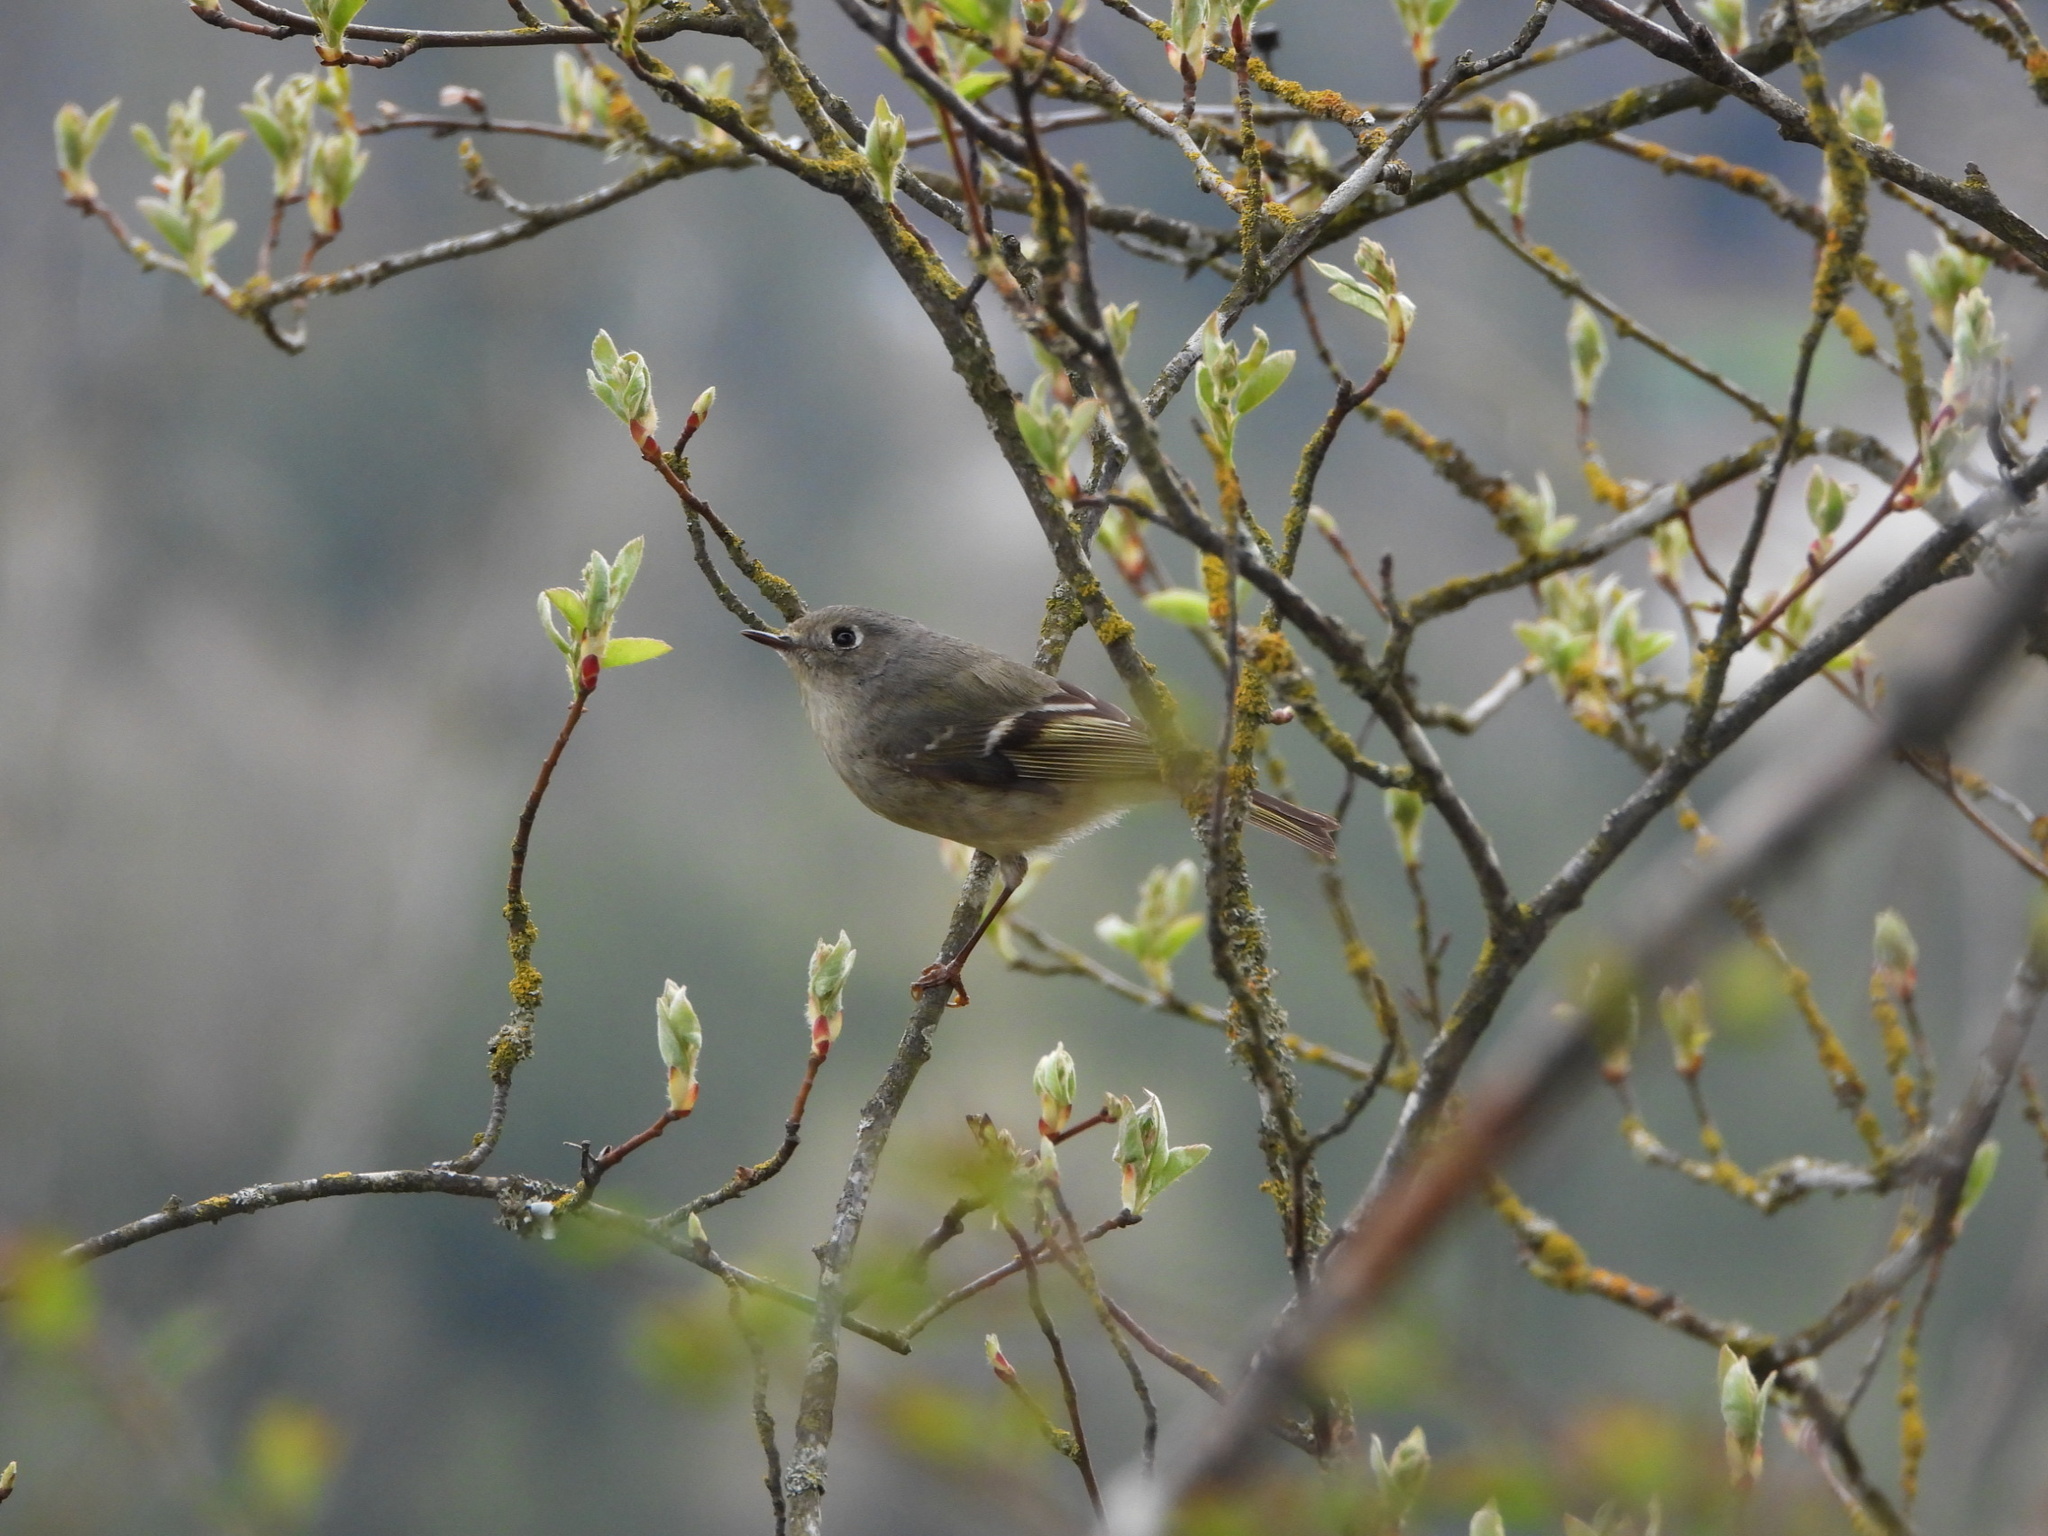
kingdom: Animalia
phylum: Chordata
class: Aves
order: Passeriformes
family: Regulidae
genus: Regulus
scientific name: Regulus calendula
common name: Ruby-crowned kinglet
